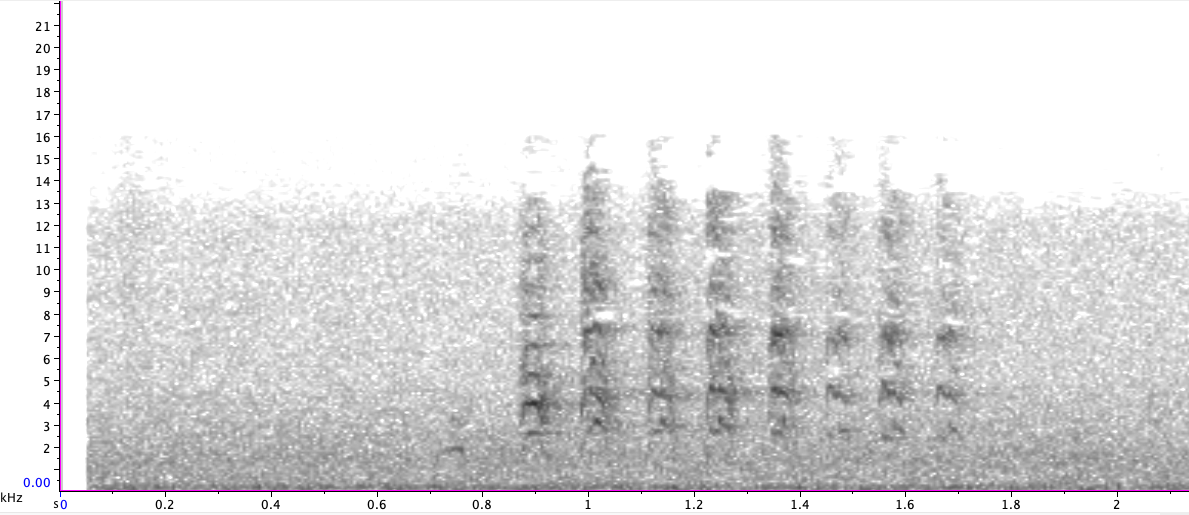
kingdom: Animalia
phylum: Chordata
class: Aves
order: Passeriformes
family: Turdidae
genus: Turdus
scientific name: Turdus migratorius
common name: American robin
